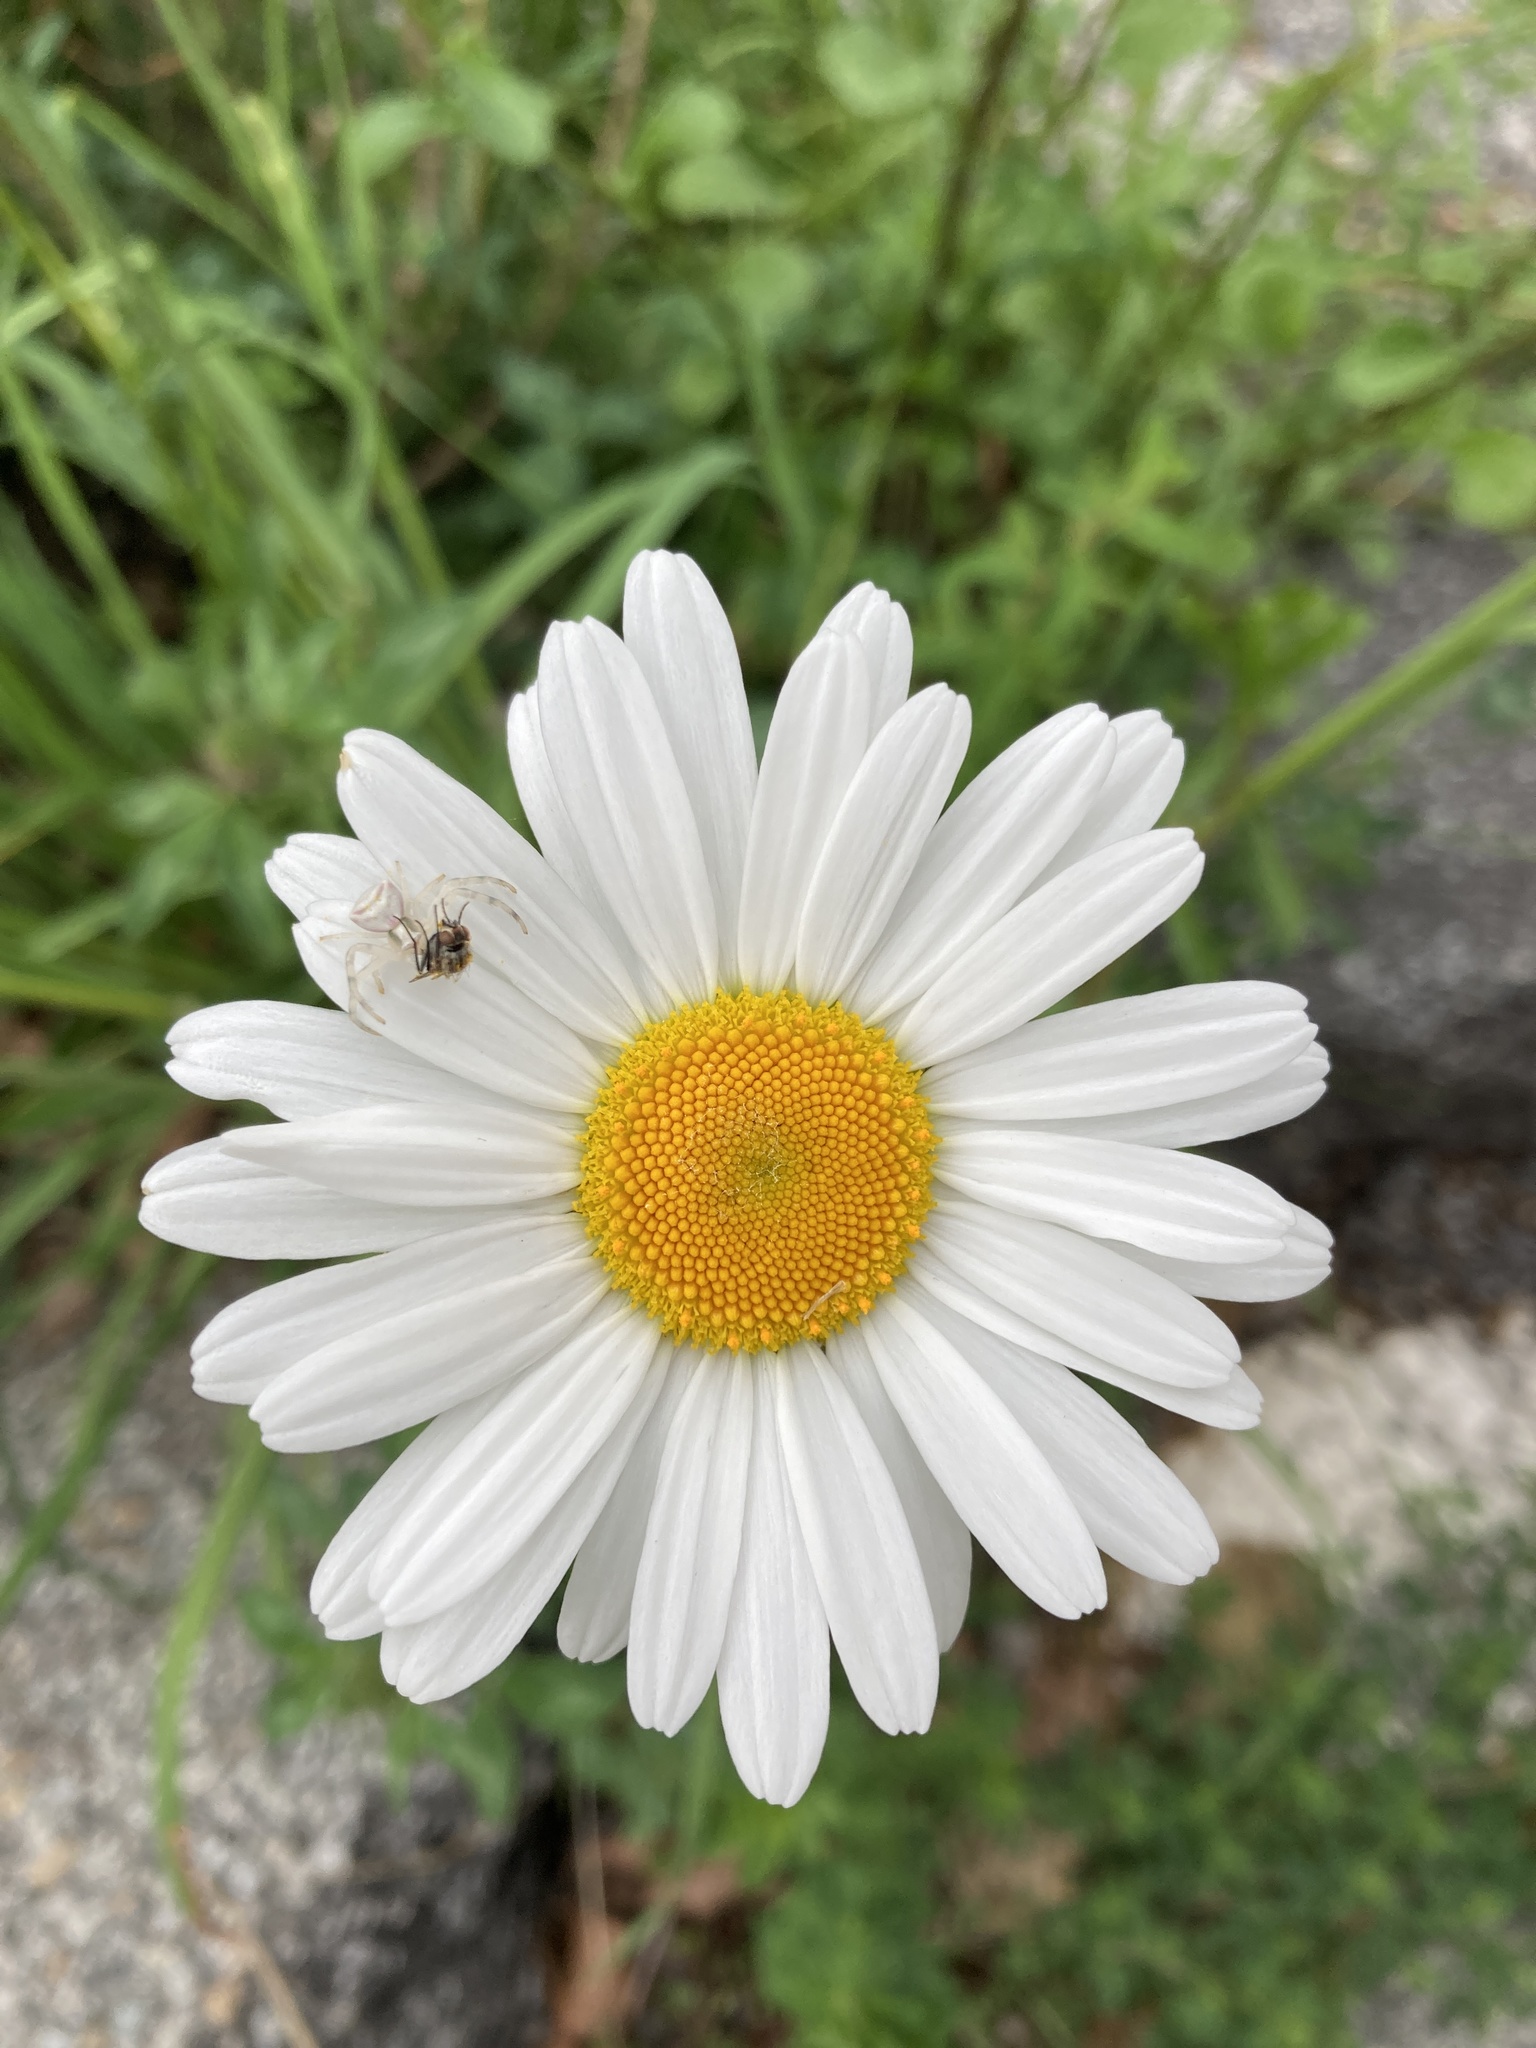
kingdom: Animalia
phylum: Arthropoda
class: Arachnida
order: Araneae
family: Thomisidae
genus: Thomisus
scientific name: Thomisus onustus
